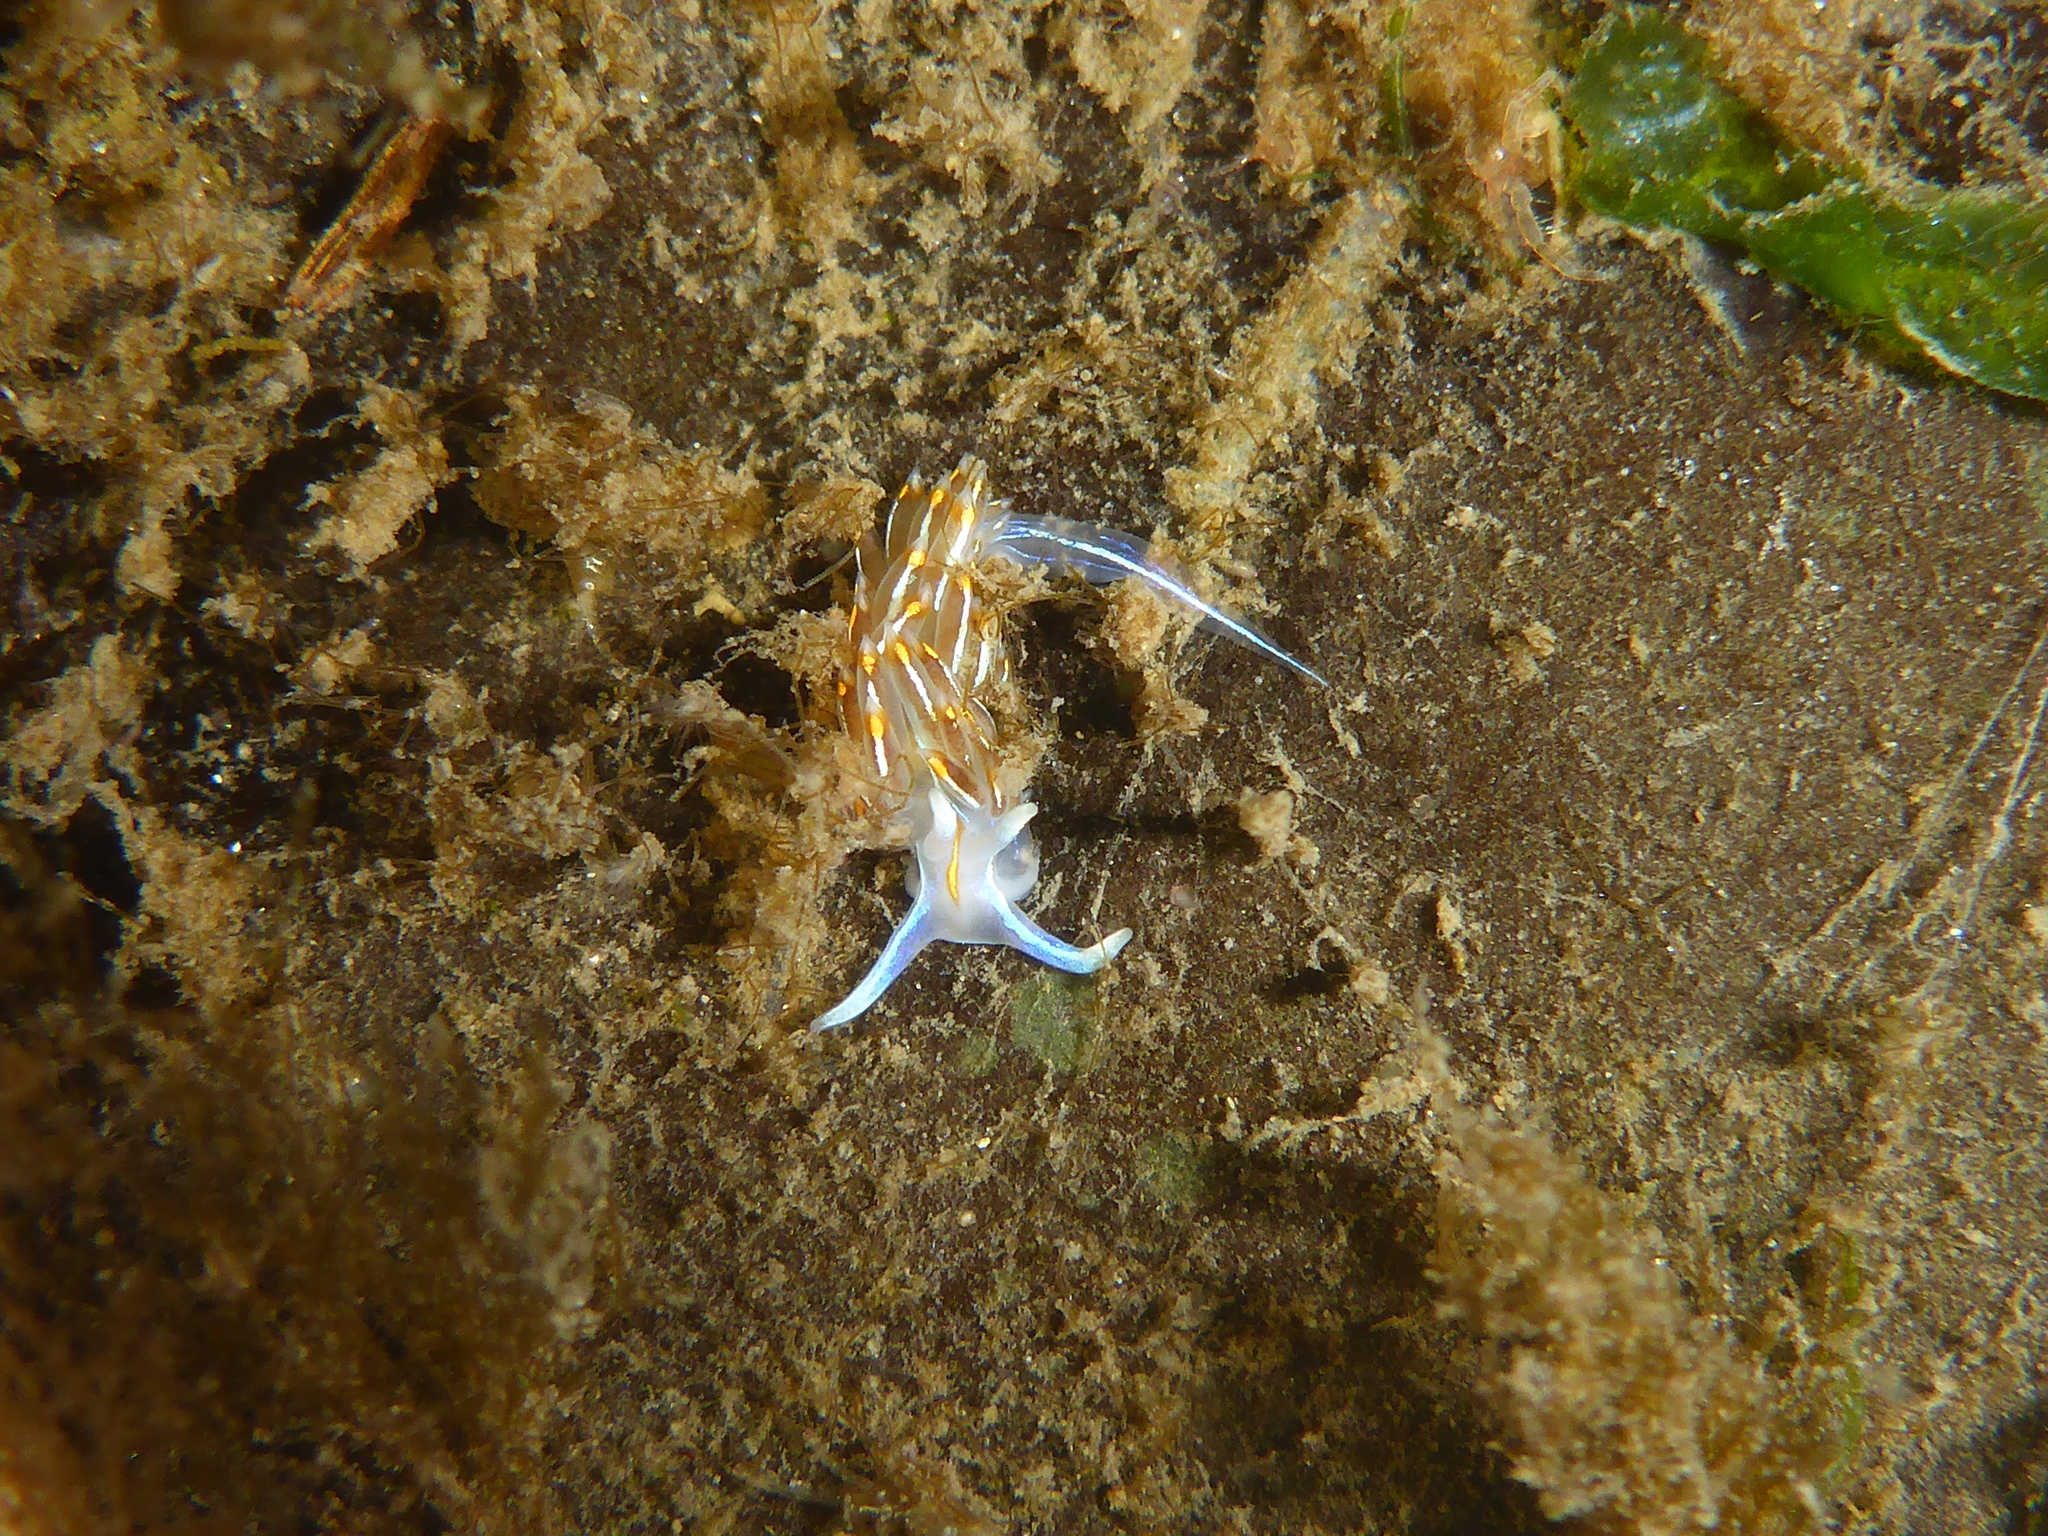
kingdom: Animalia
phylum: Mollusca
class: Gastropoda
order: Nudibranchia
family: Myrrhinidae
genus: Hermissenda
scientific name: Hermissenda crassicornis
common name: Hermissenda
